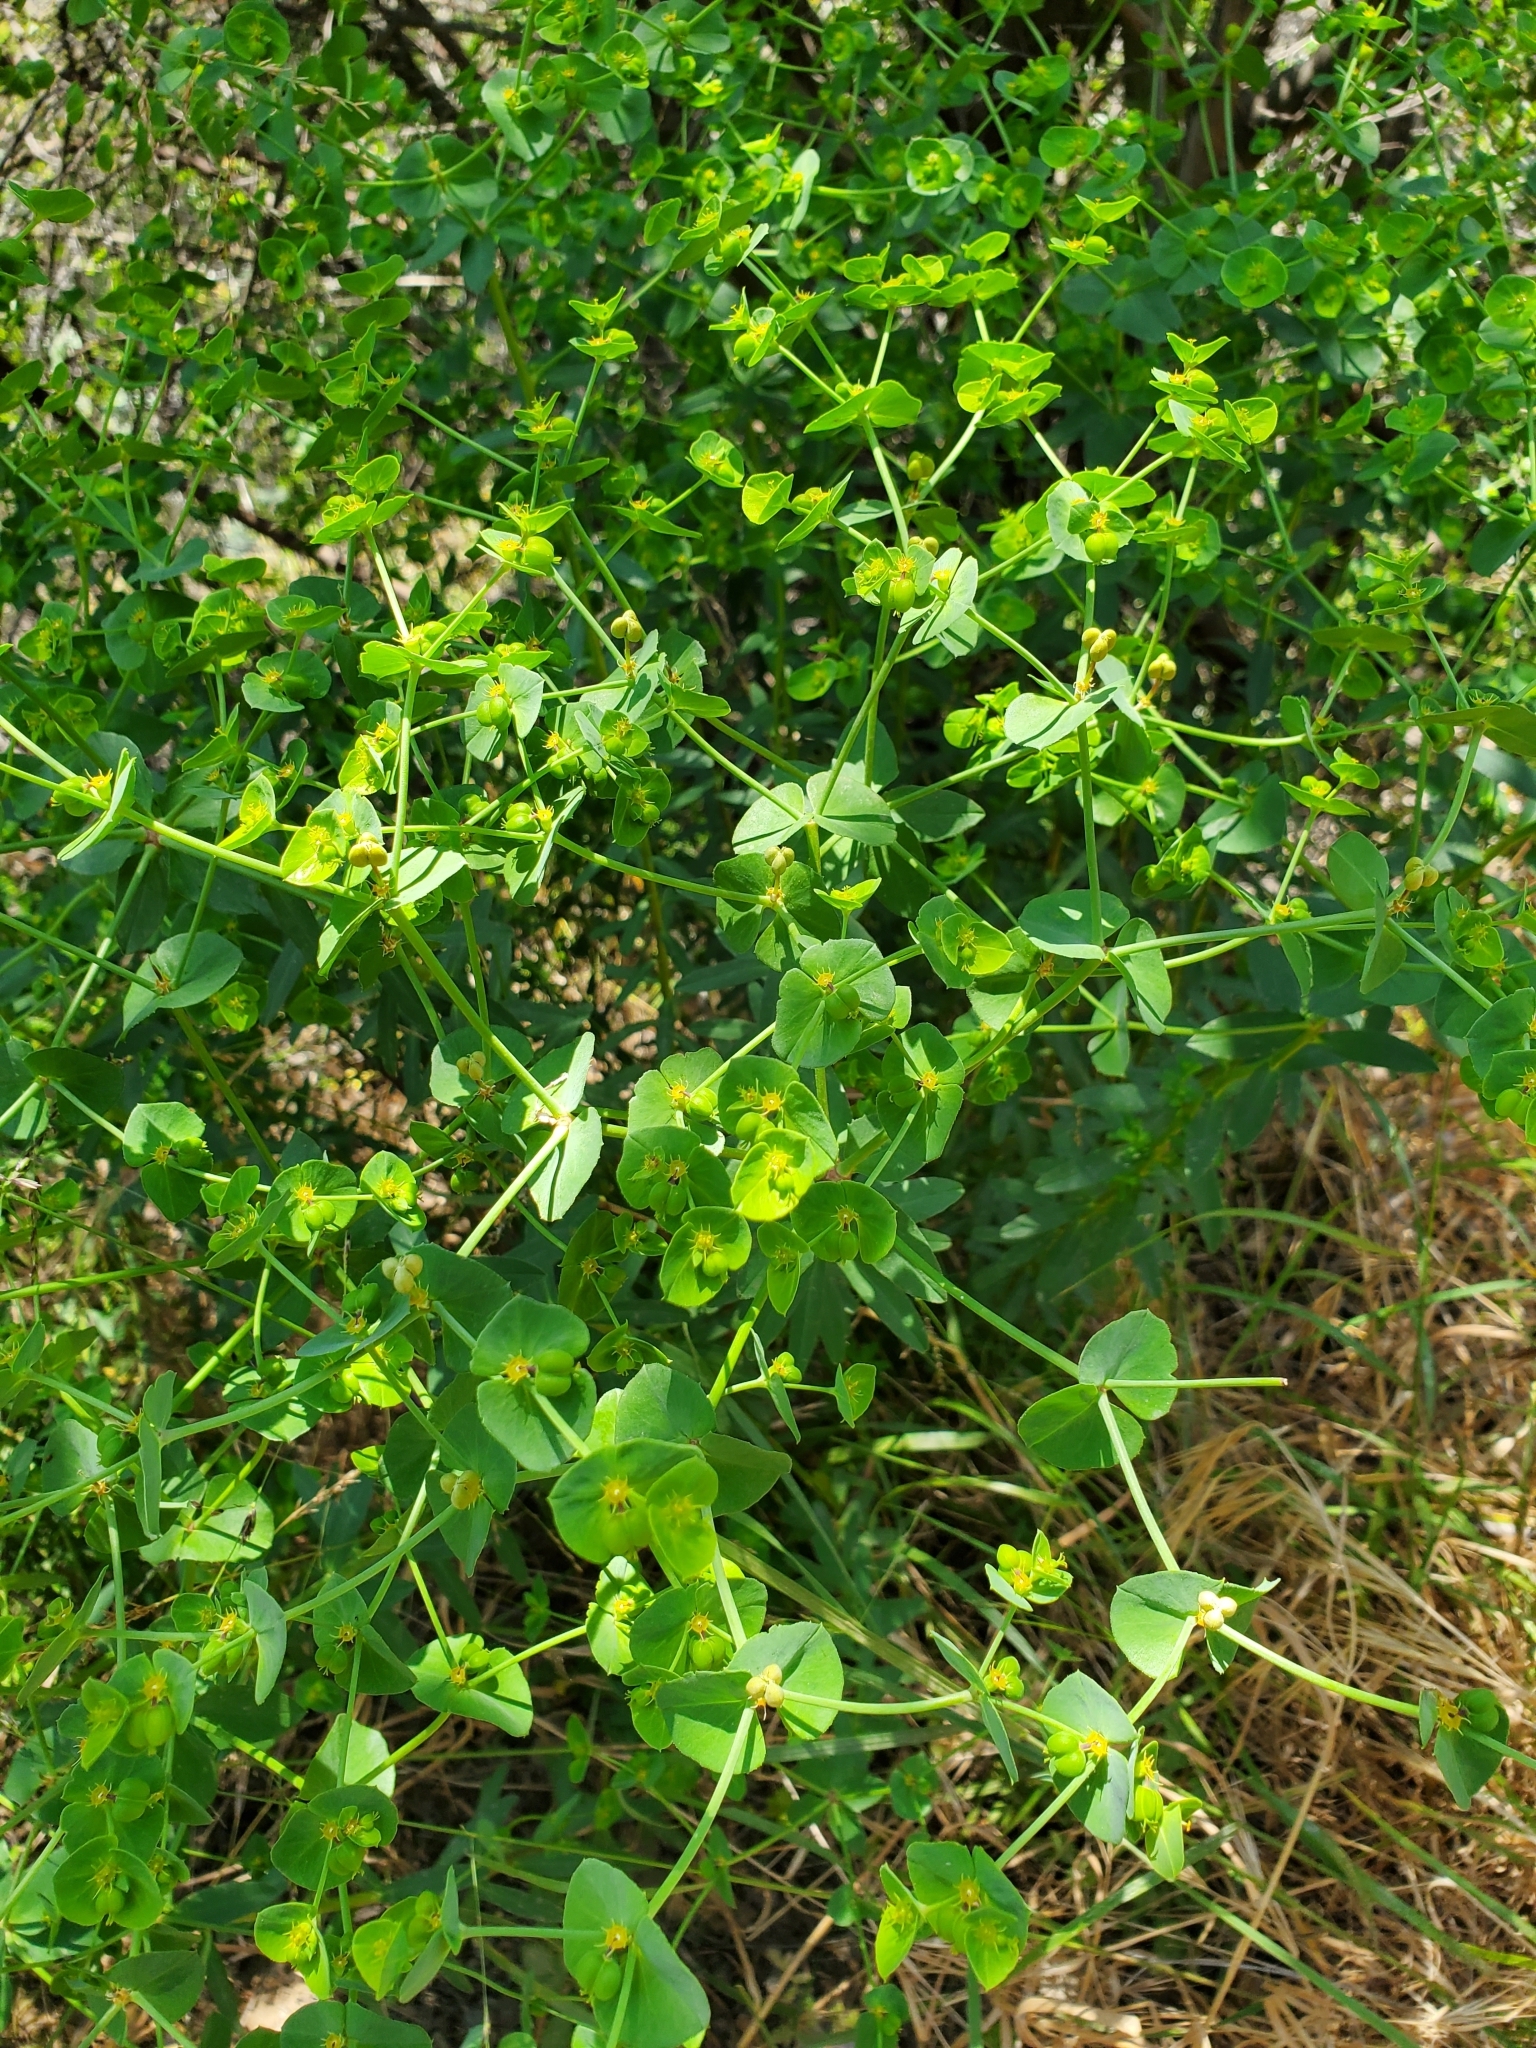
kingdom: Plantae
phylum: Tracheophyta
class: Magnoliopsida
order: Malpighiales
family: Euphorbiaceae
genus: Euphorbia
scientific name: Euphorbia terracina
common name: Geraldton carnation weed
